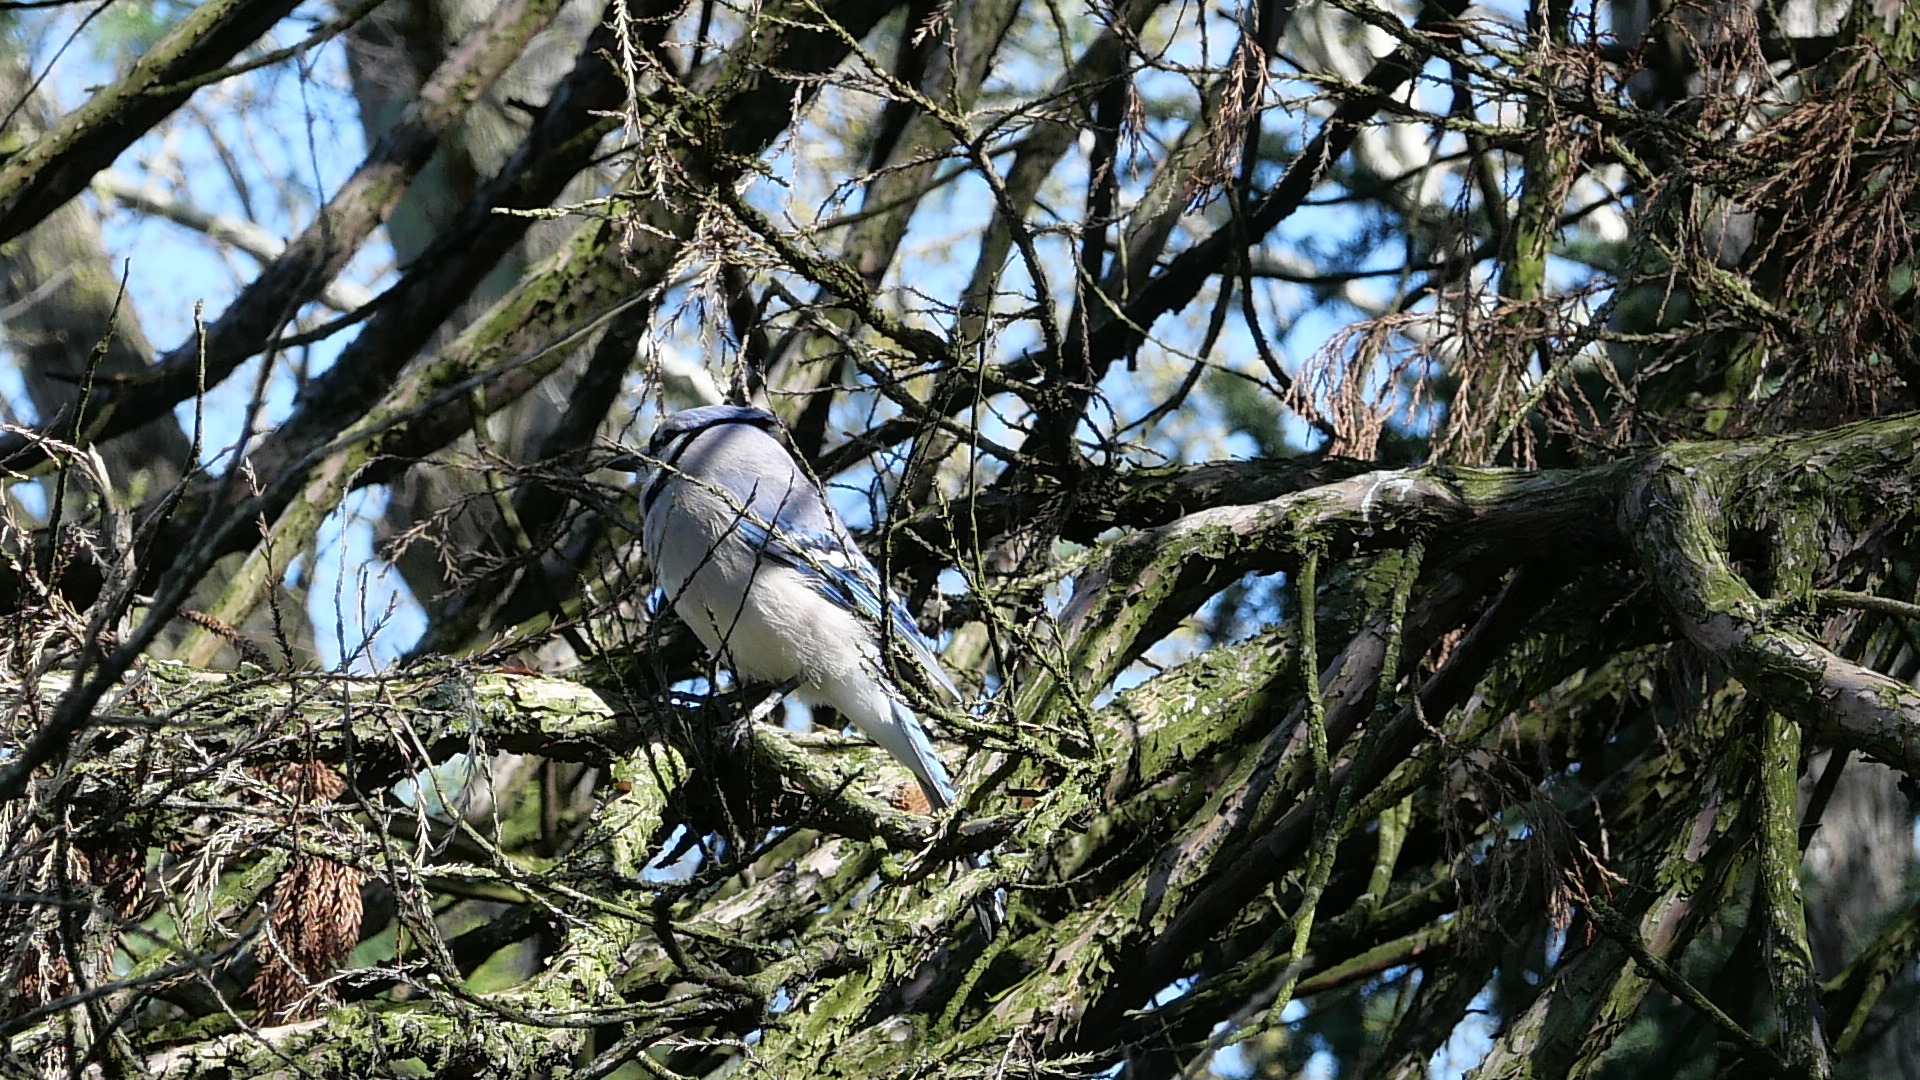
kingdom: Animalia
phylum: Chordata
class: Aves
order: Passeriformes
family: Corvidae
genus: Cyanocitta
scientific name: Cyanocitta cristata
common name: Blue jay
